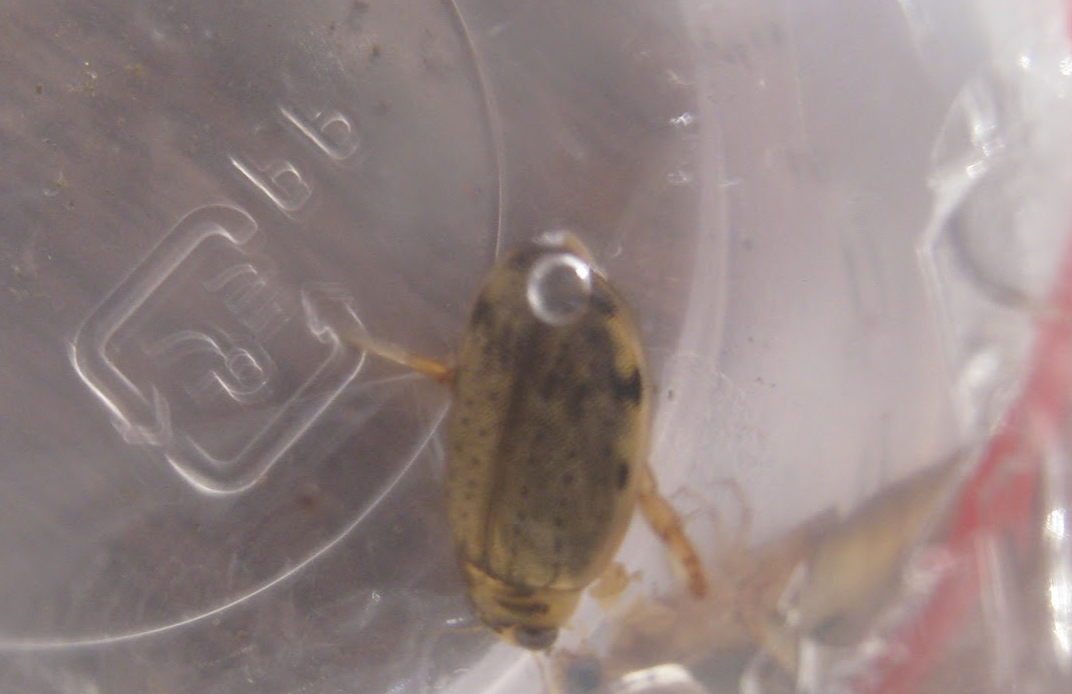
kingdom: Animalia
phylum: Arthropoda
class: Insecta
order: Coleoptera
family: Dytiscidae
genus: Eretes
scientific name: Eretes griseus
